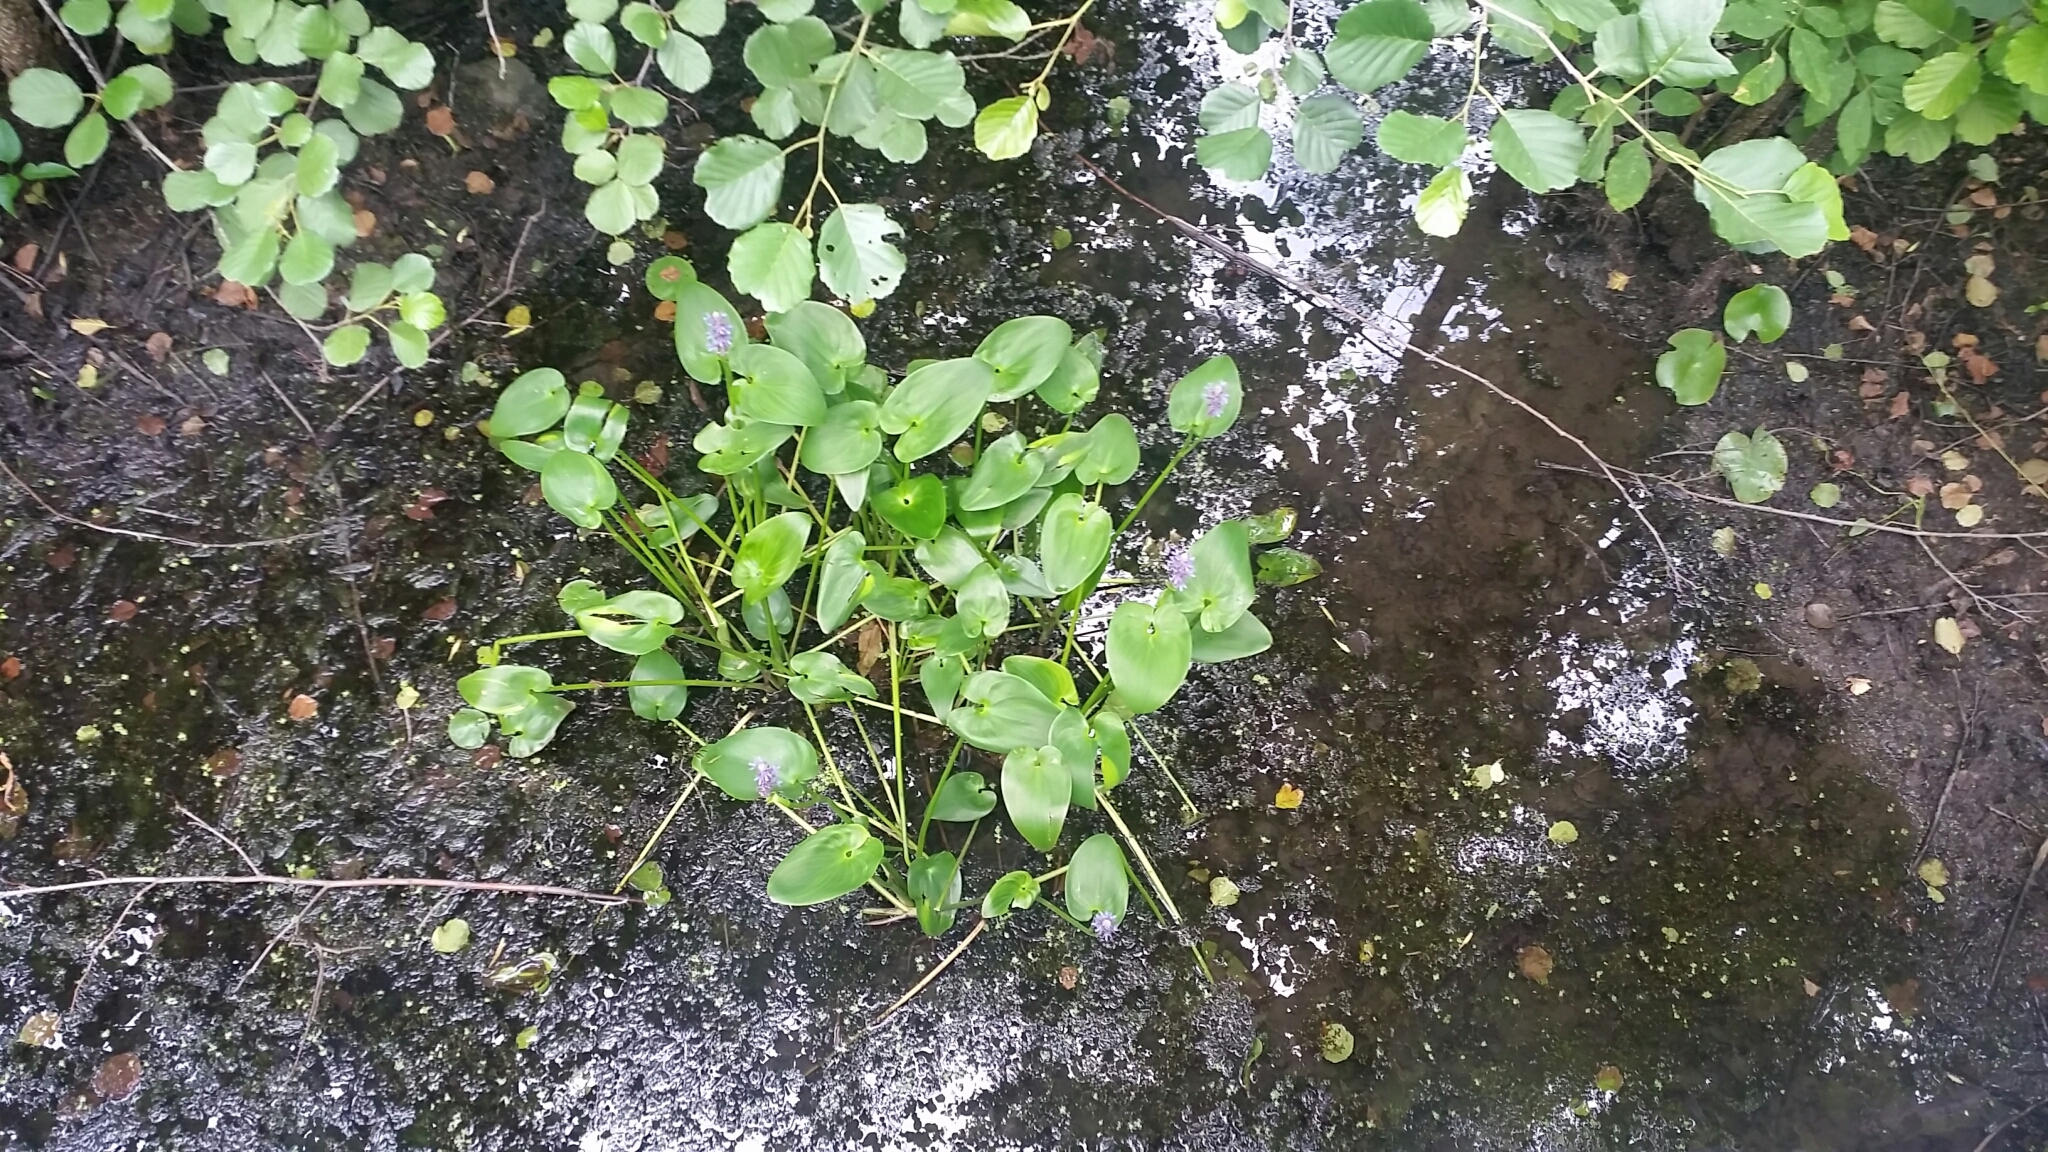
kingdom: Plantae
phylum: Tracheophyta
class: Liliopsida
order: Commelinales
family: Pontederiaceae
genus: Pontederia
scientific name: Pontederia cordata
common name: Pickerelweed
